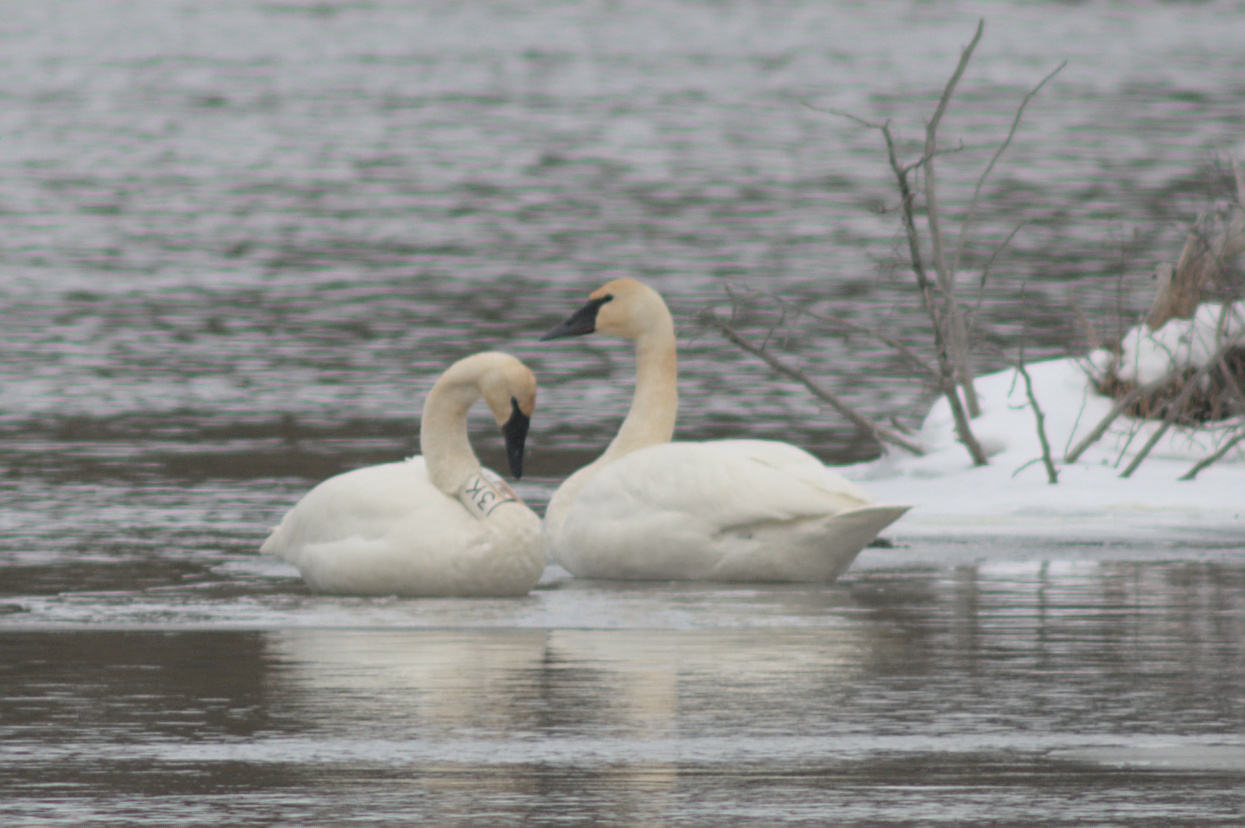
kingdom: Animalia
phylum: Chordata
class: Aves
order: Anseriformes
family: Anatidae
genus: Cygnus
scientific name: Cygnus buccinator
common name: Trumpeter swan
